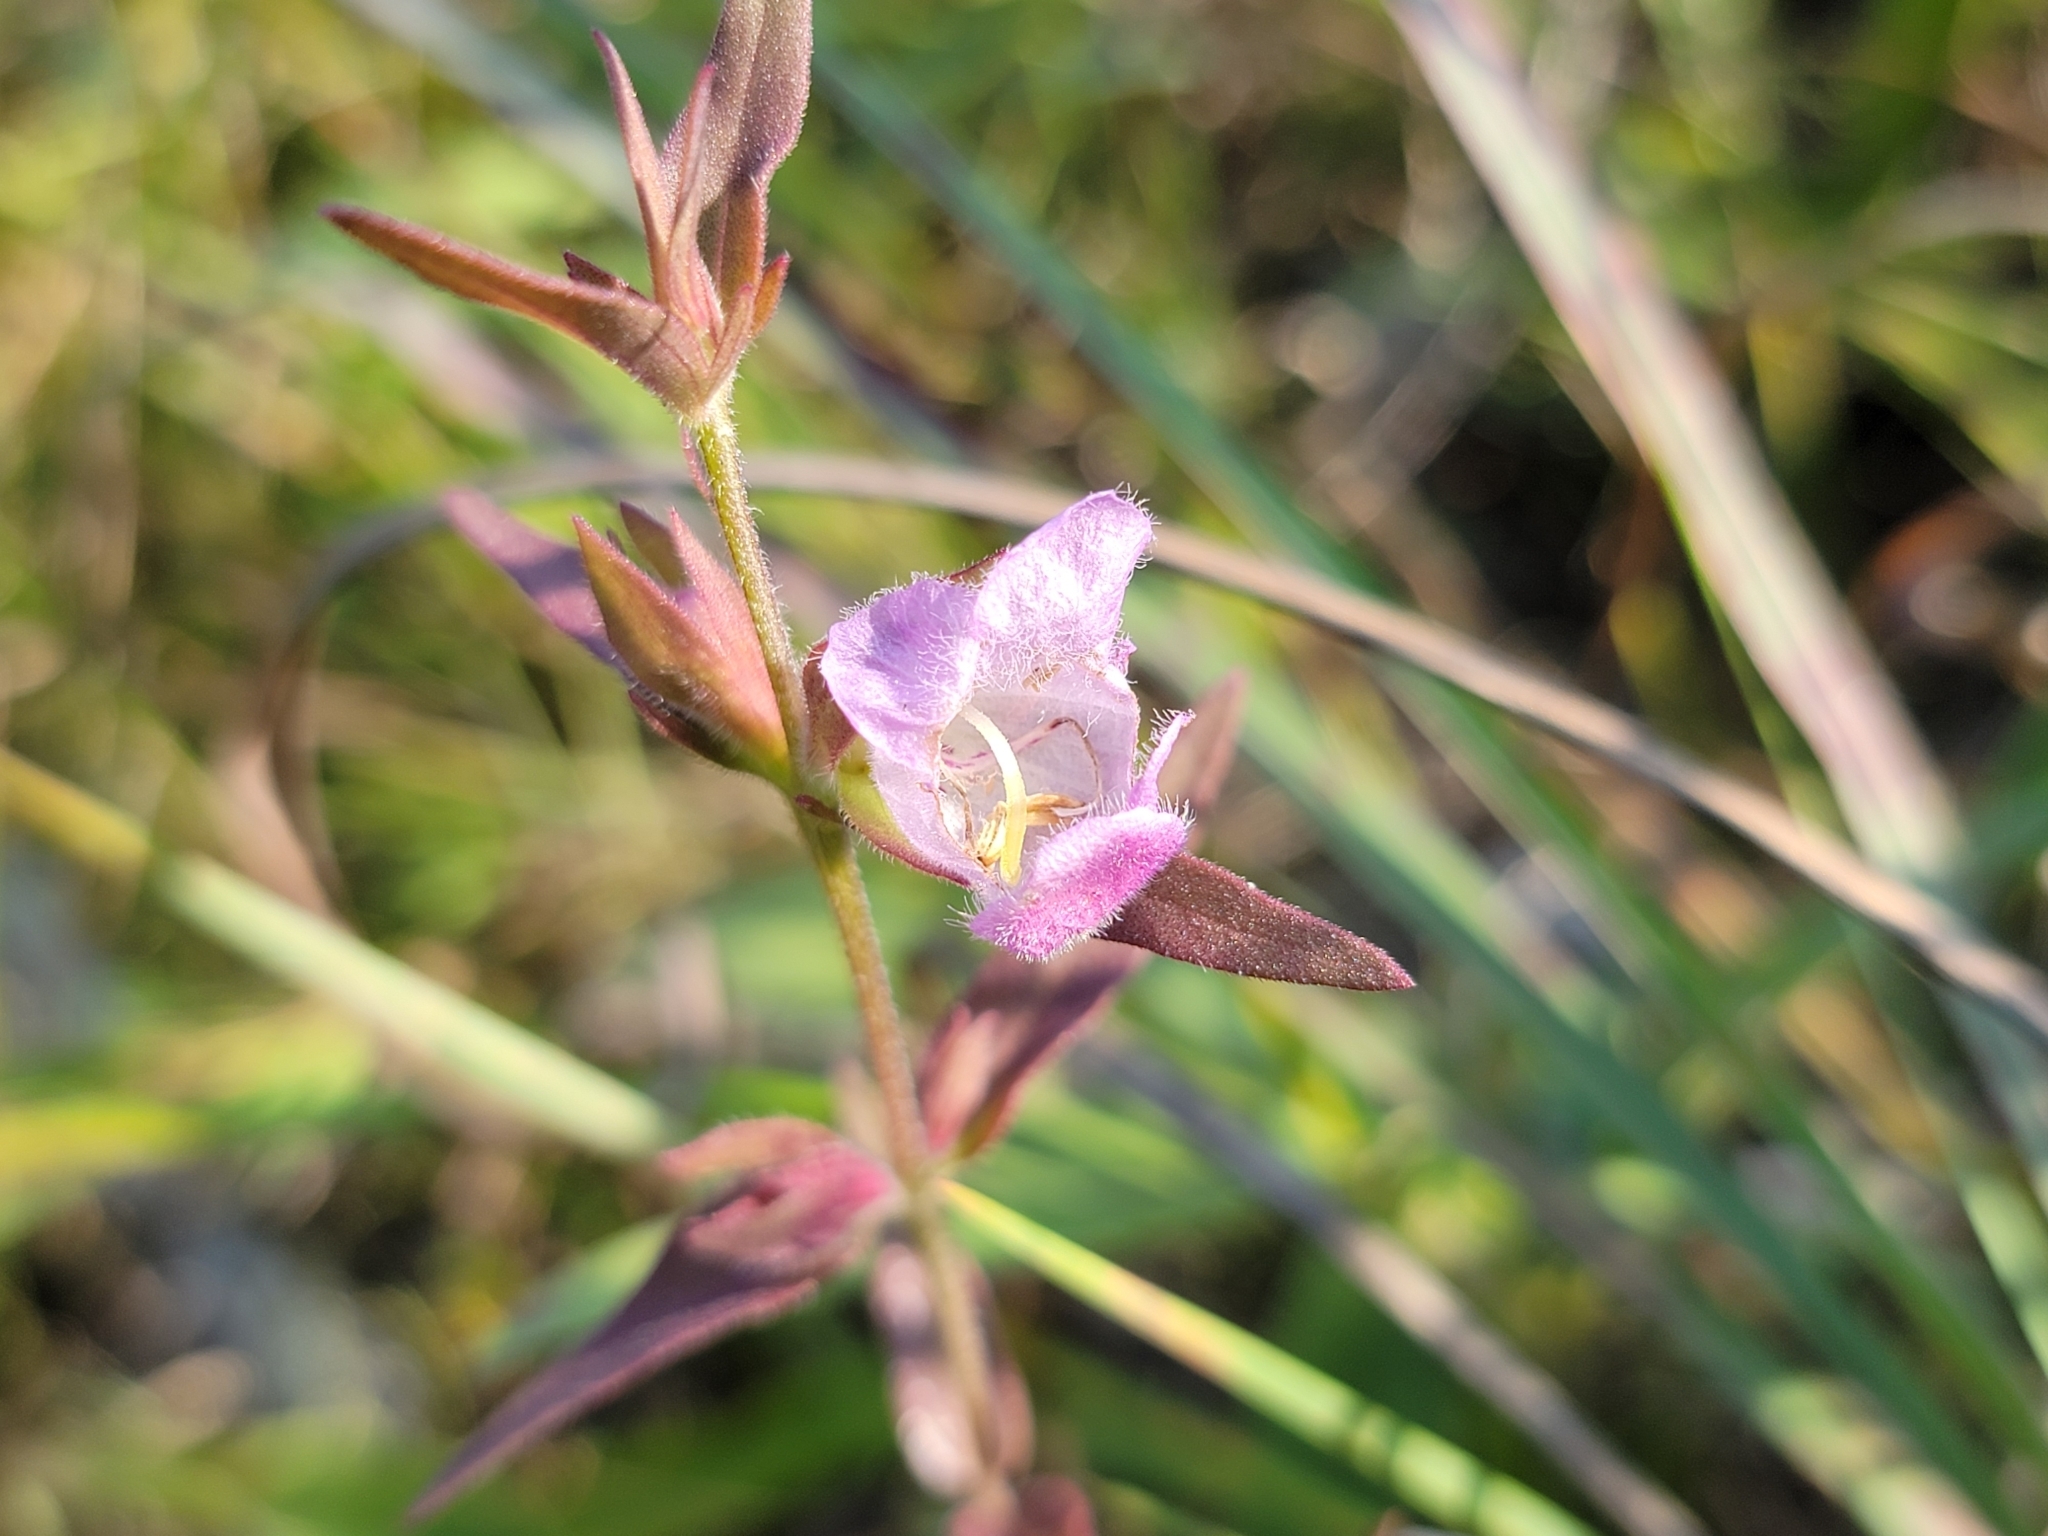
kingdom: Plantae
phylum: Tracheophyta
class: Magnoliopsida
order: Lamiales
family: Orobanchaceae
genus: Agalinis
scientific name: Agalinis auriculata
